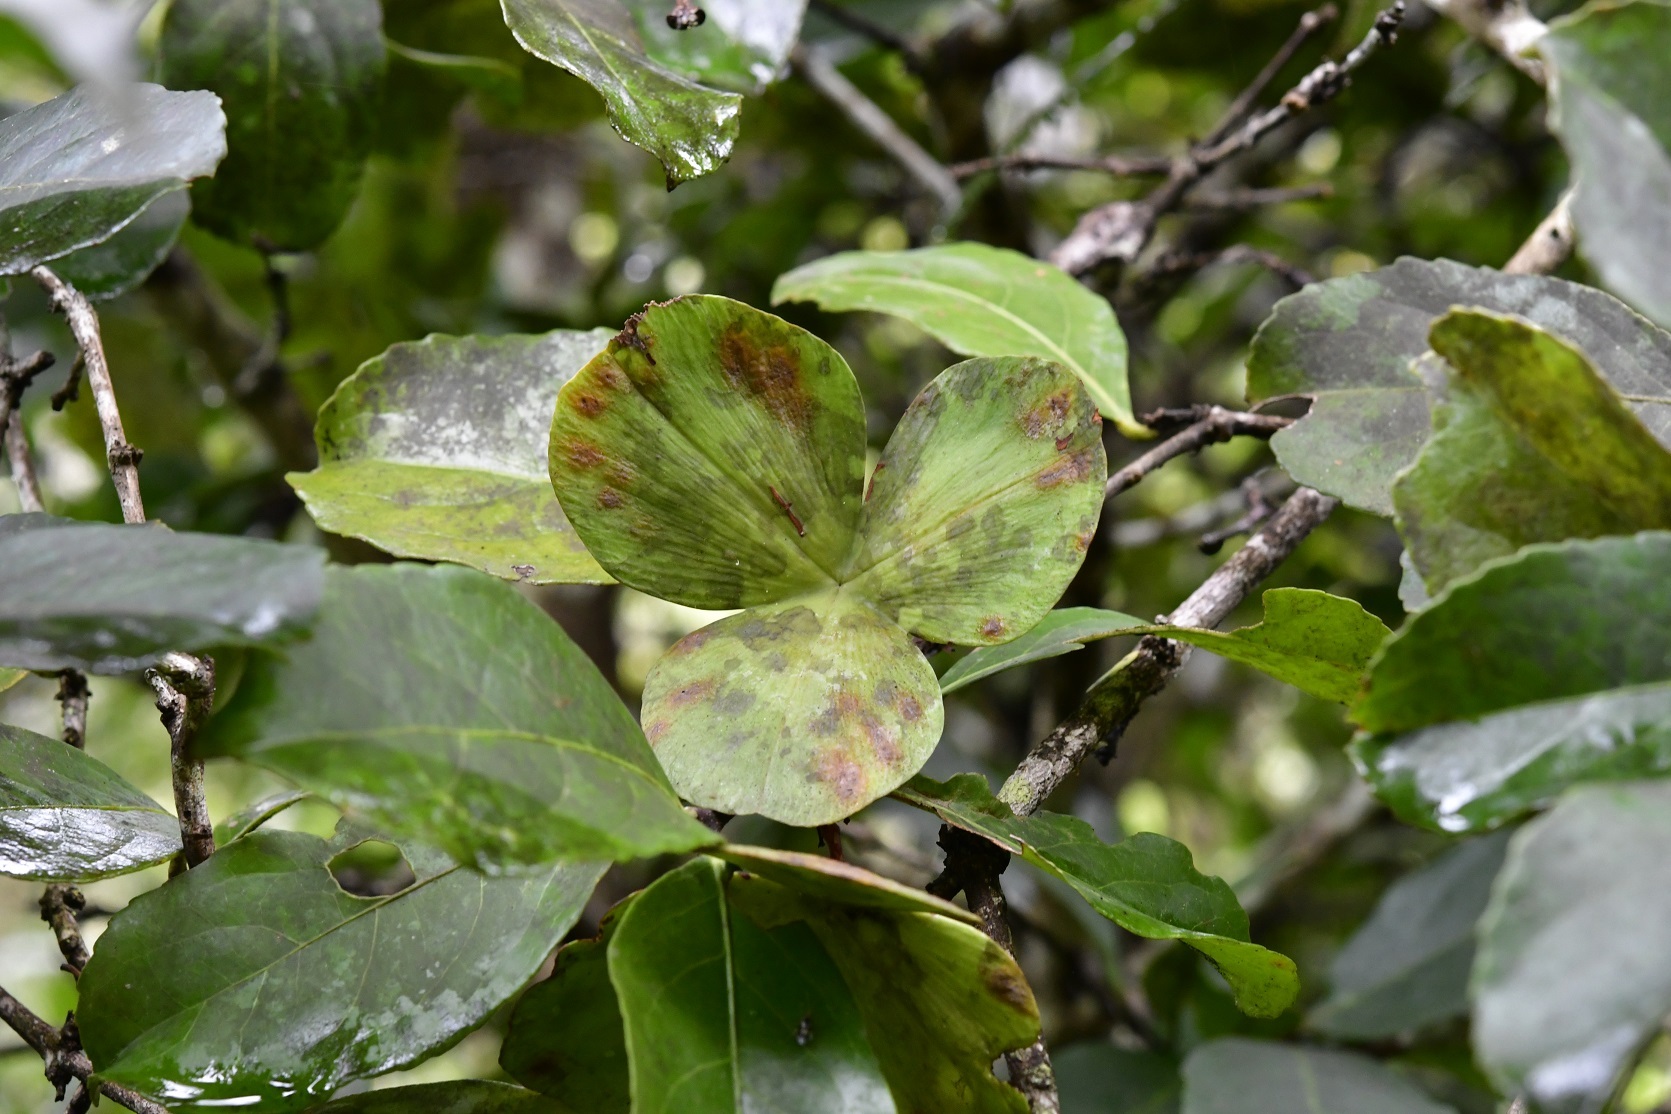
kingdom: Plantae
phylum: Tracheophyta
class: Magnoliopsida
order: Celastrales
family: Celastraceae
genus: Semialarium
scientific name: Semialarium mexicanum
